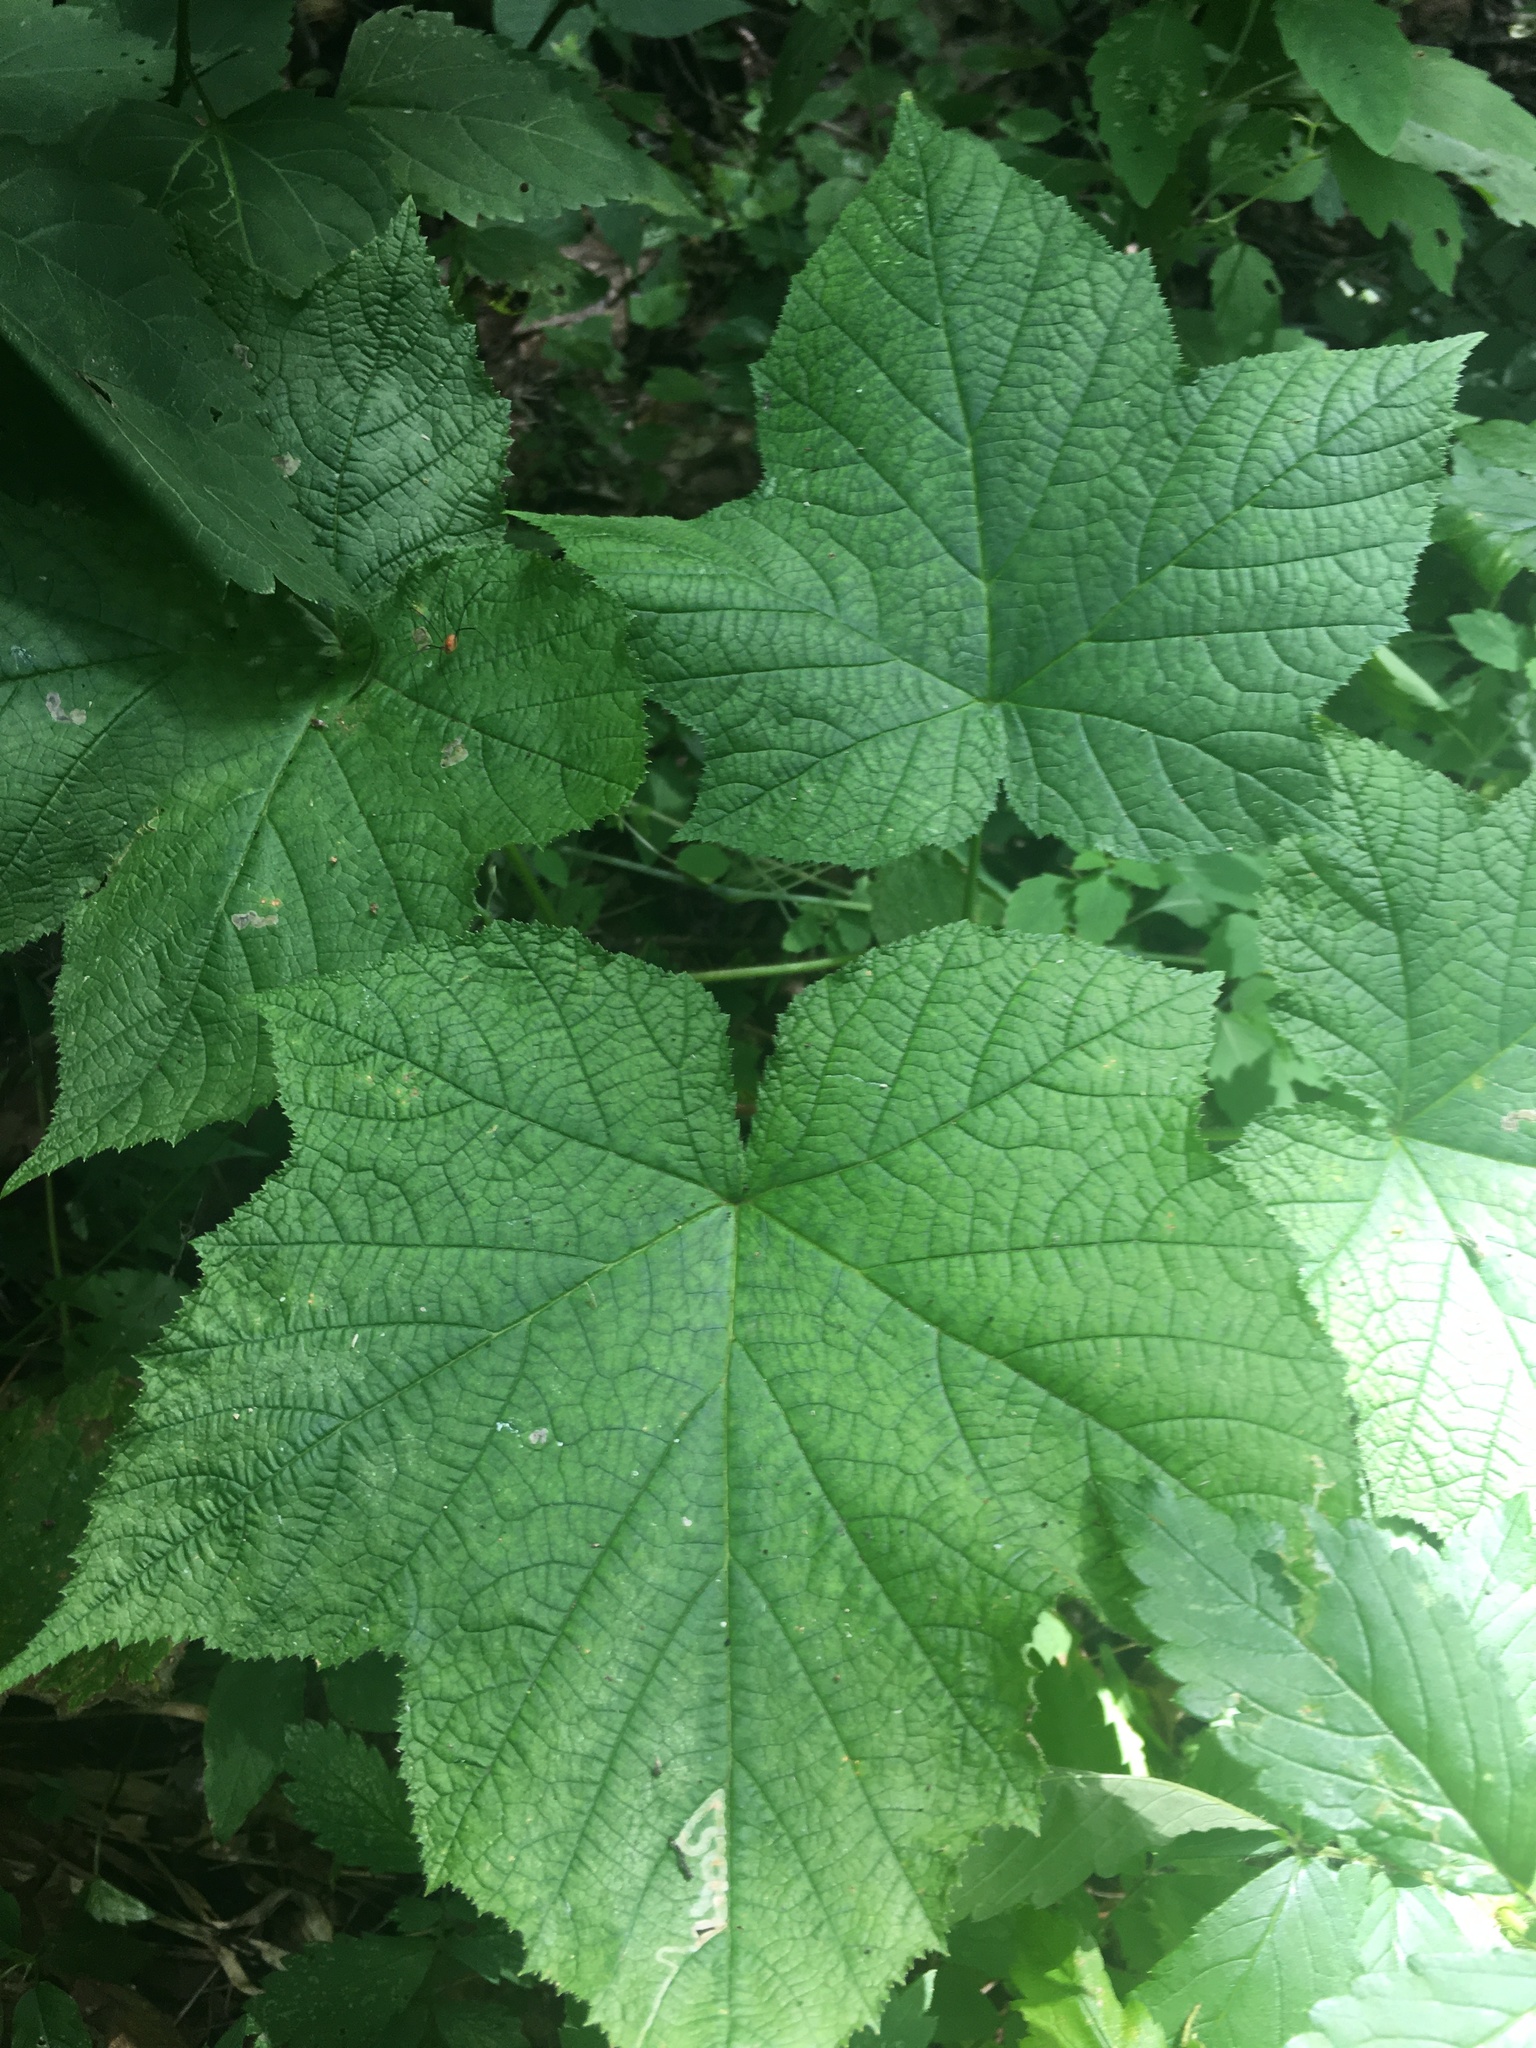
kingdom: Plantae
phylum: Tracheophyta
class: Magnoliopsida
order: Rosales
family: Rosaceae
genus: Rubus
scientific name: Rubus odoratus
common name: Purple-flowered raspberry
